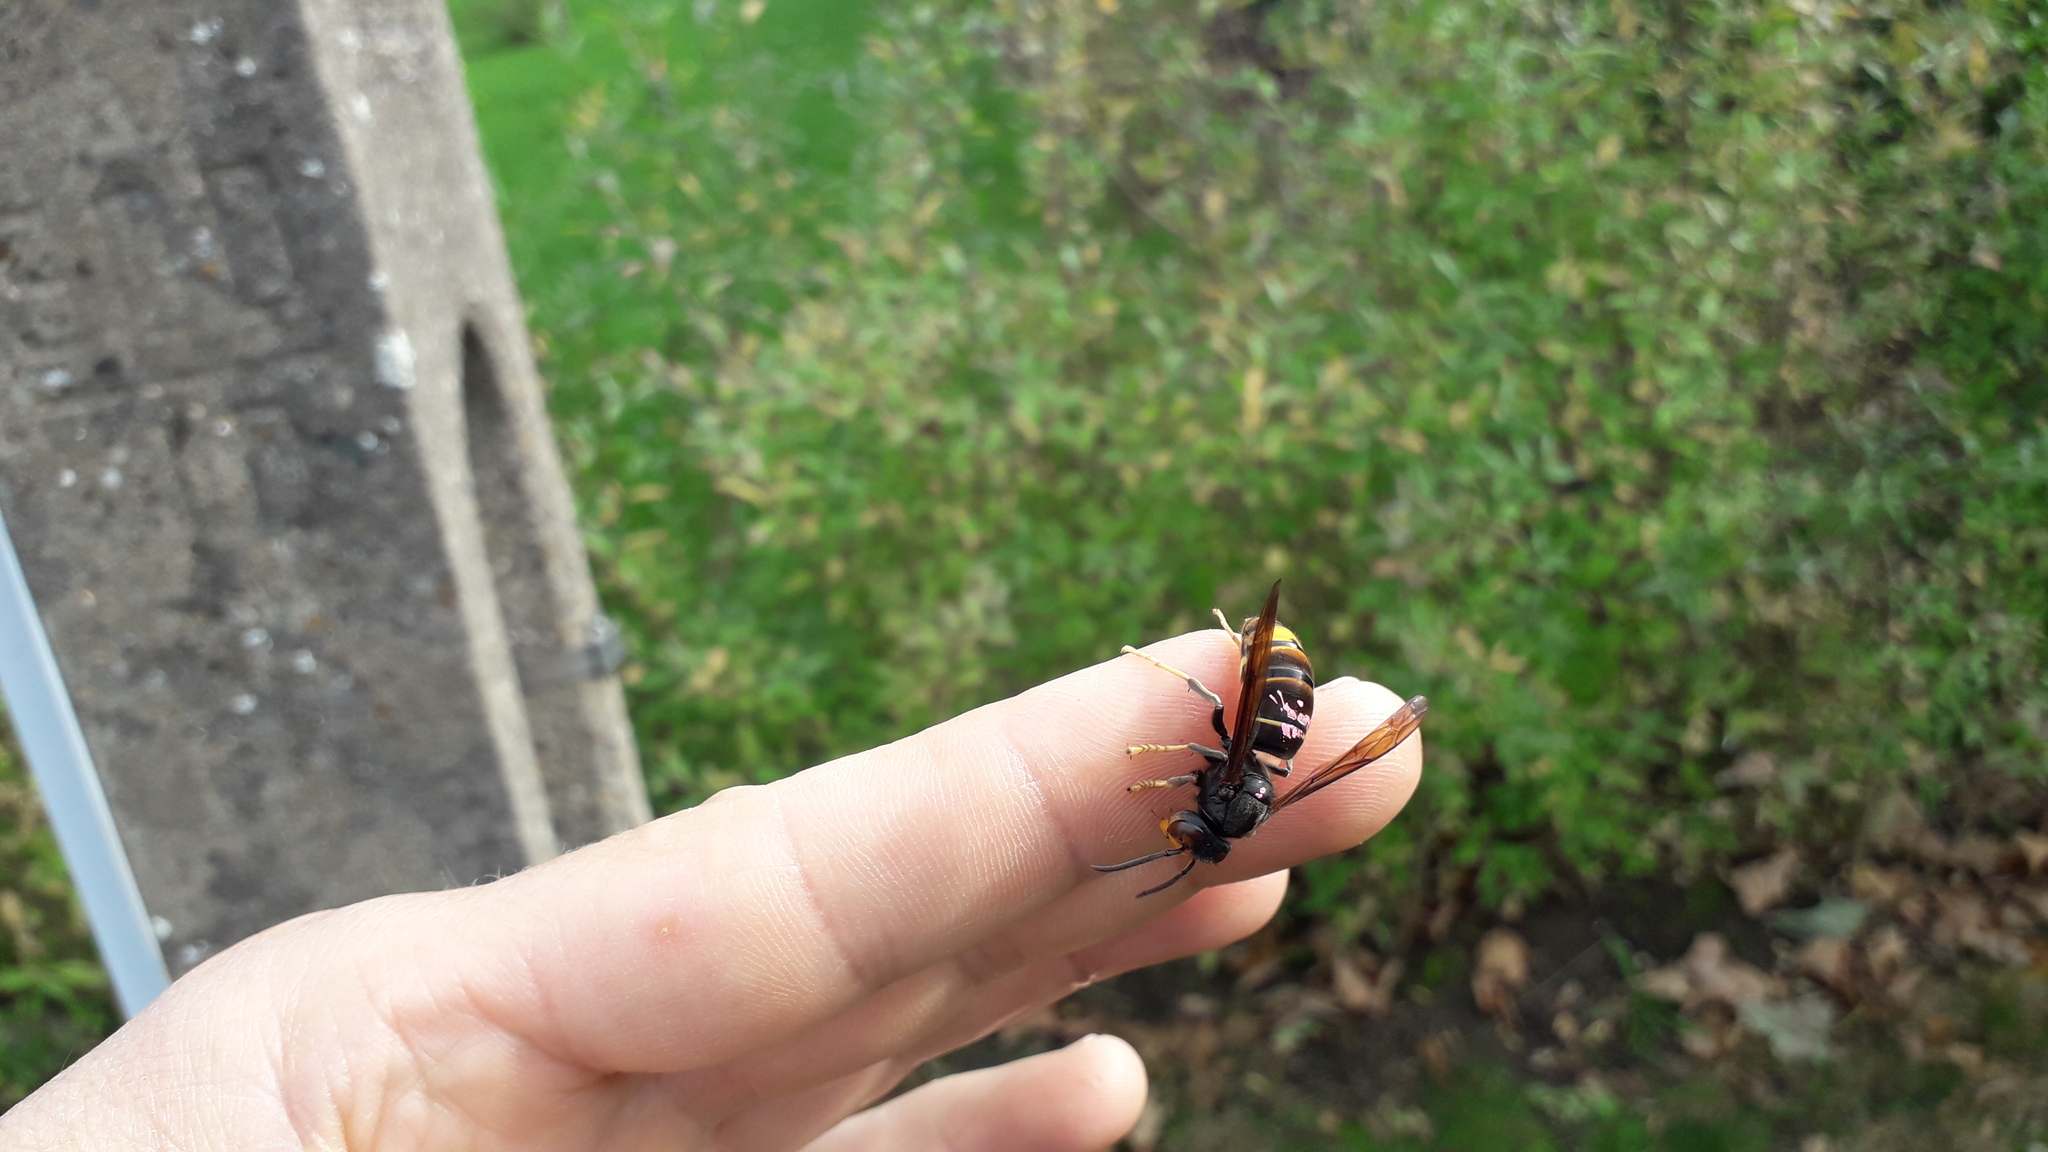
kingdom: Animalia
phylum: Arthropoda
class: Insecta
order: Hymenoptera
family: Vespidae
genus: Vespa
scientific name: Vespa velutina
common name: Asian hornet
